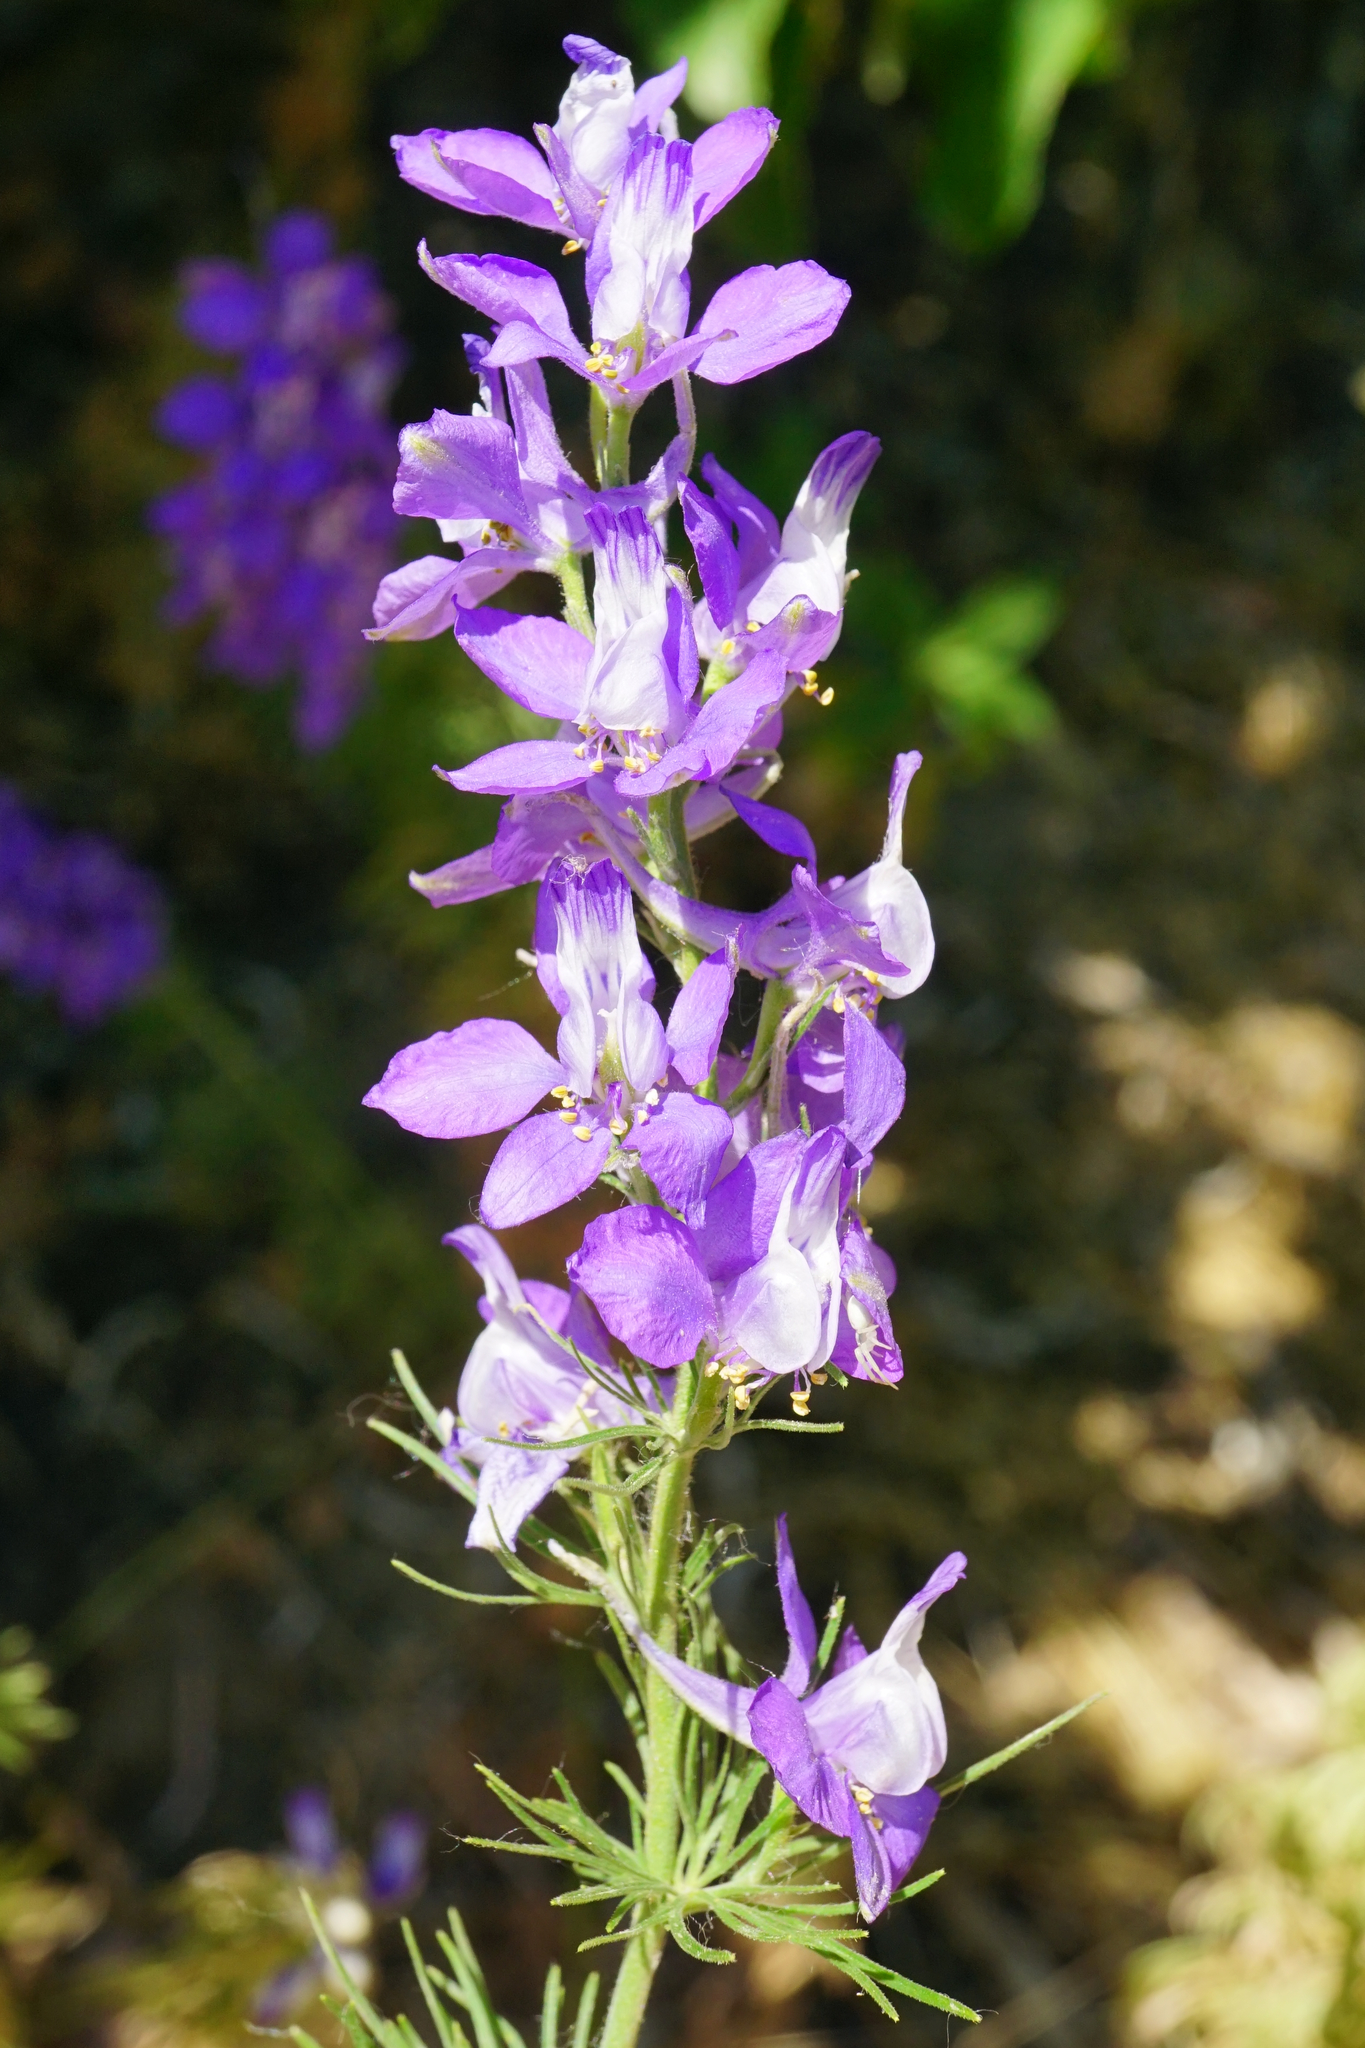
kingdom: Plantae
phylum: Tracheophyta
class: Magnoliopsida
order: Ranunculales
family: Ranunculaceae
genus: Delphinium
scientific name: Delphinium ajacis
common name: Doubtful knight's-spur
